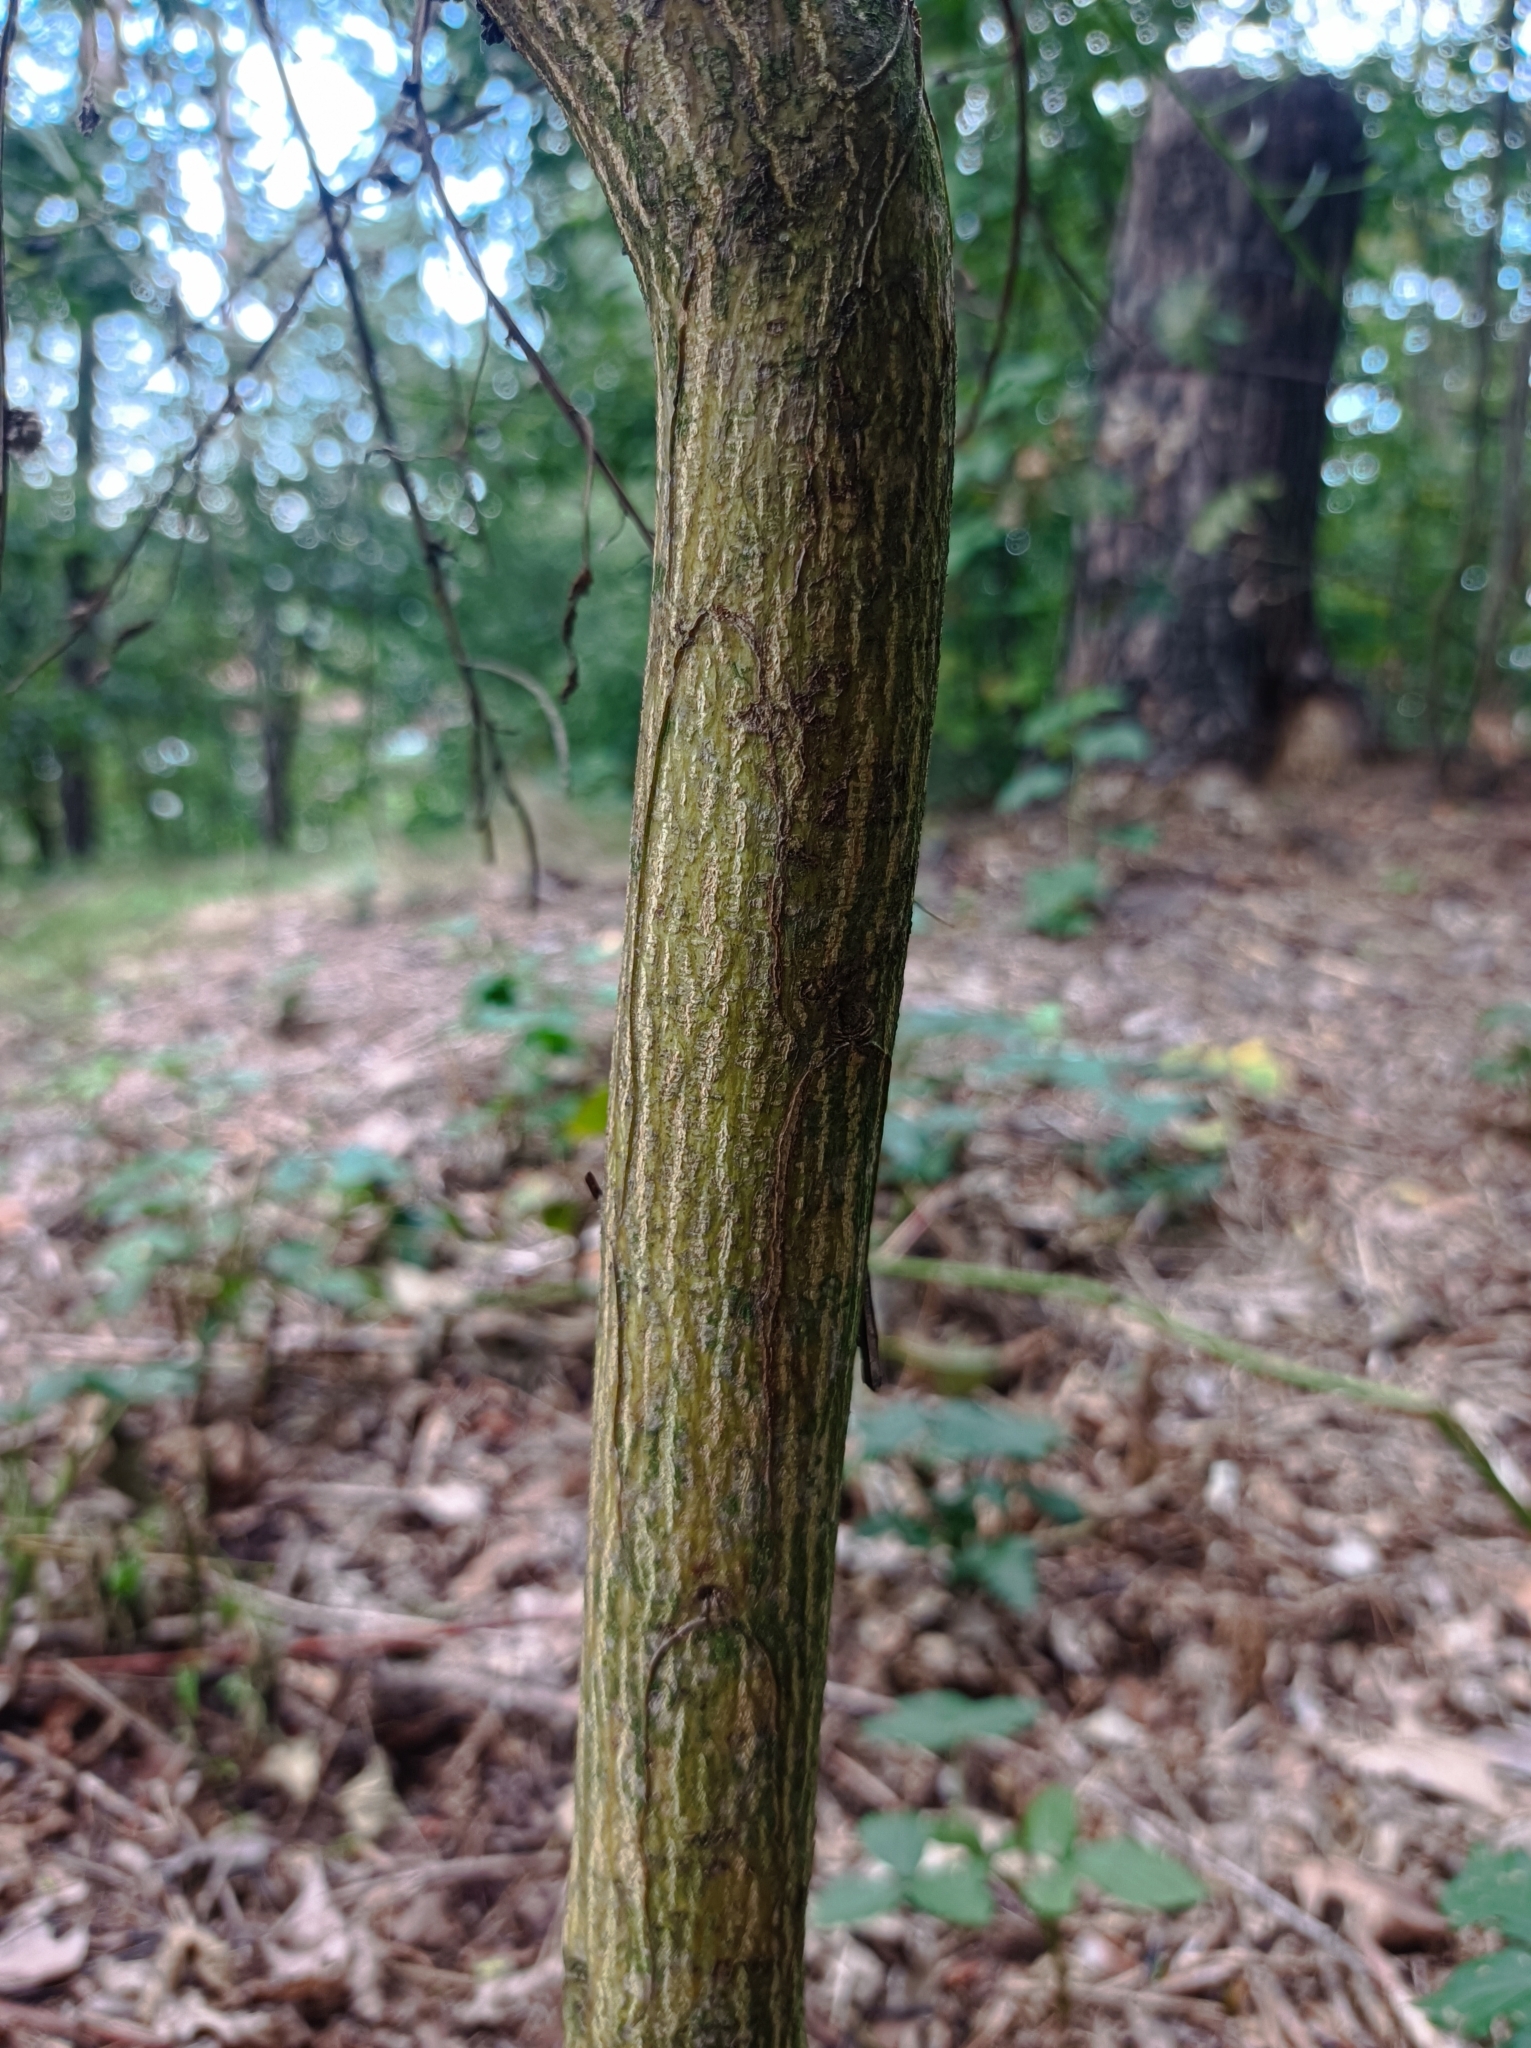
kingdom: Plantae
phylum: Tracheophyta
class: Magnoliopsida
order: Fabales
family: Fabaceae
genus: Cytisus
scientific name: Cytisus scoparius
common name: Scotch broom
